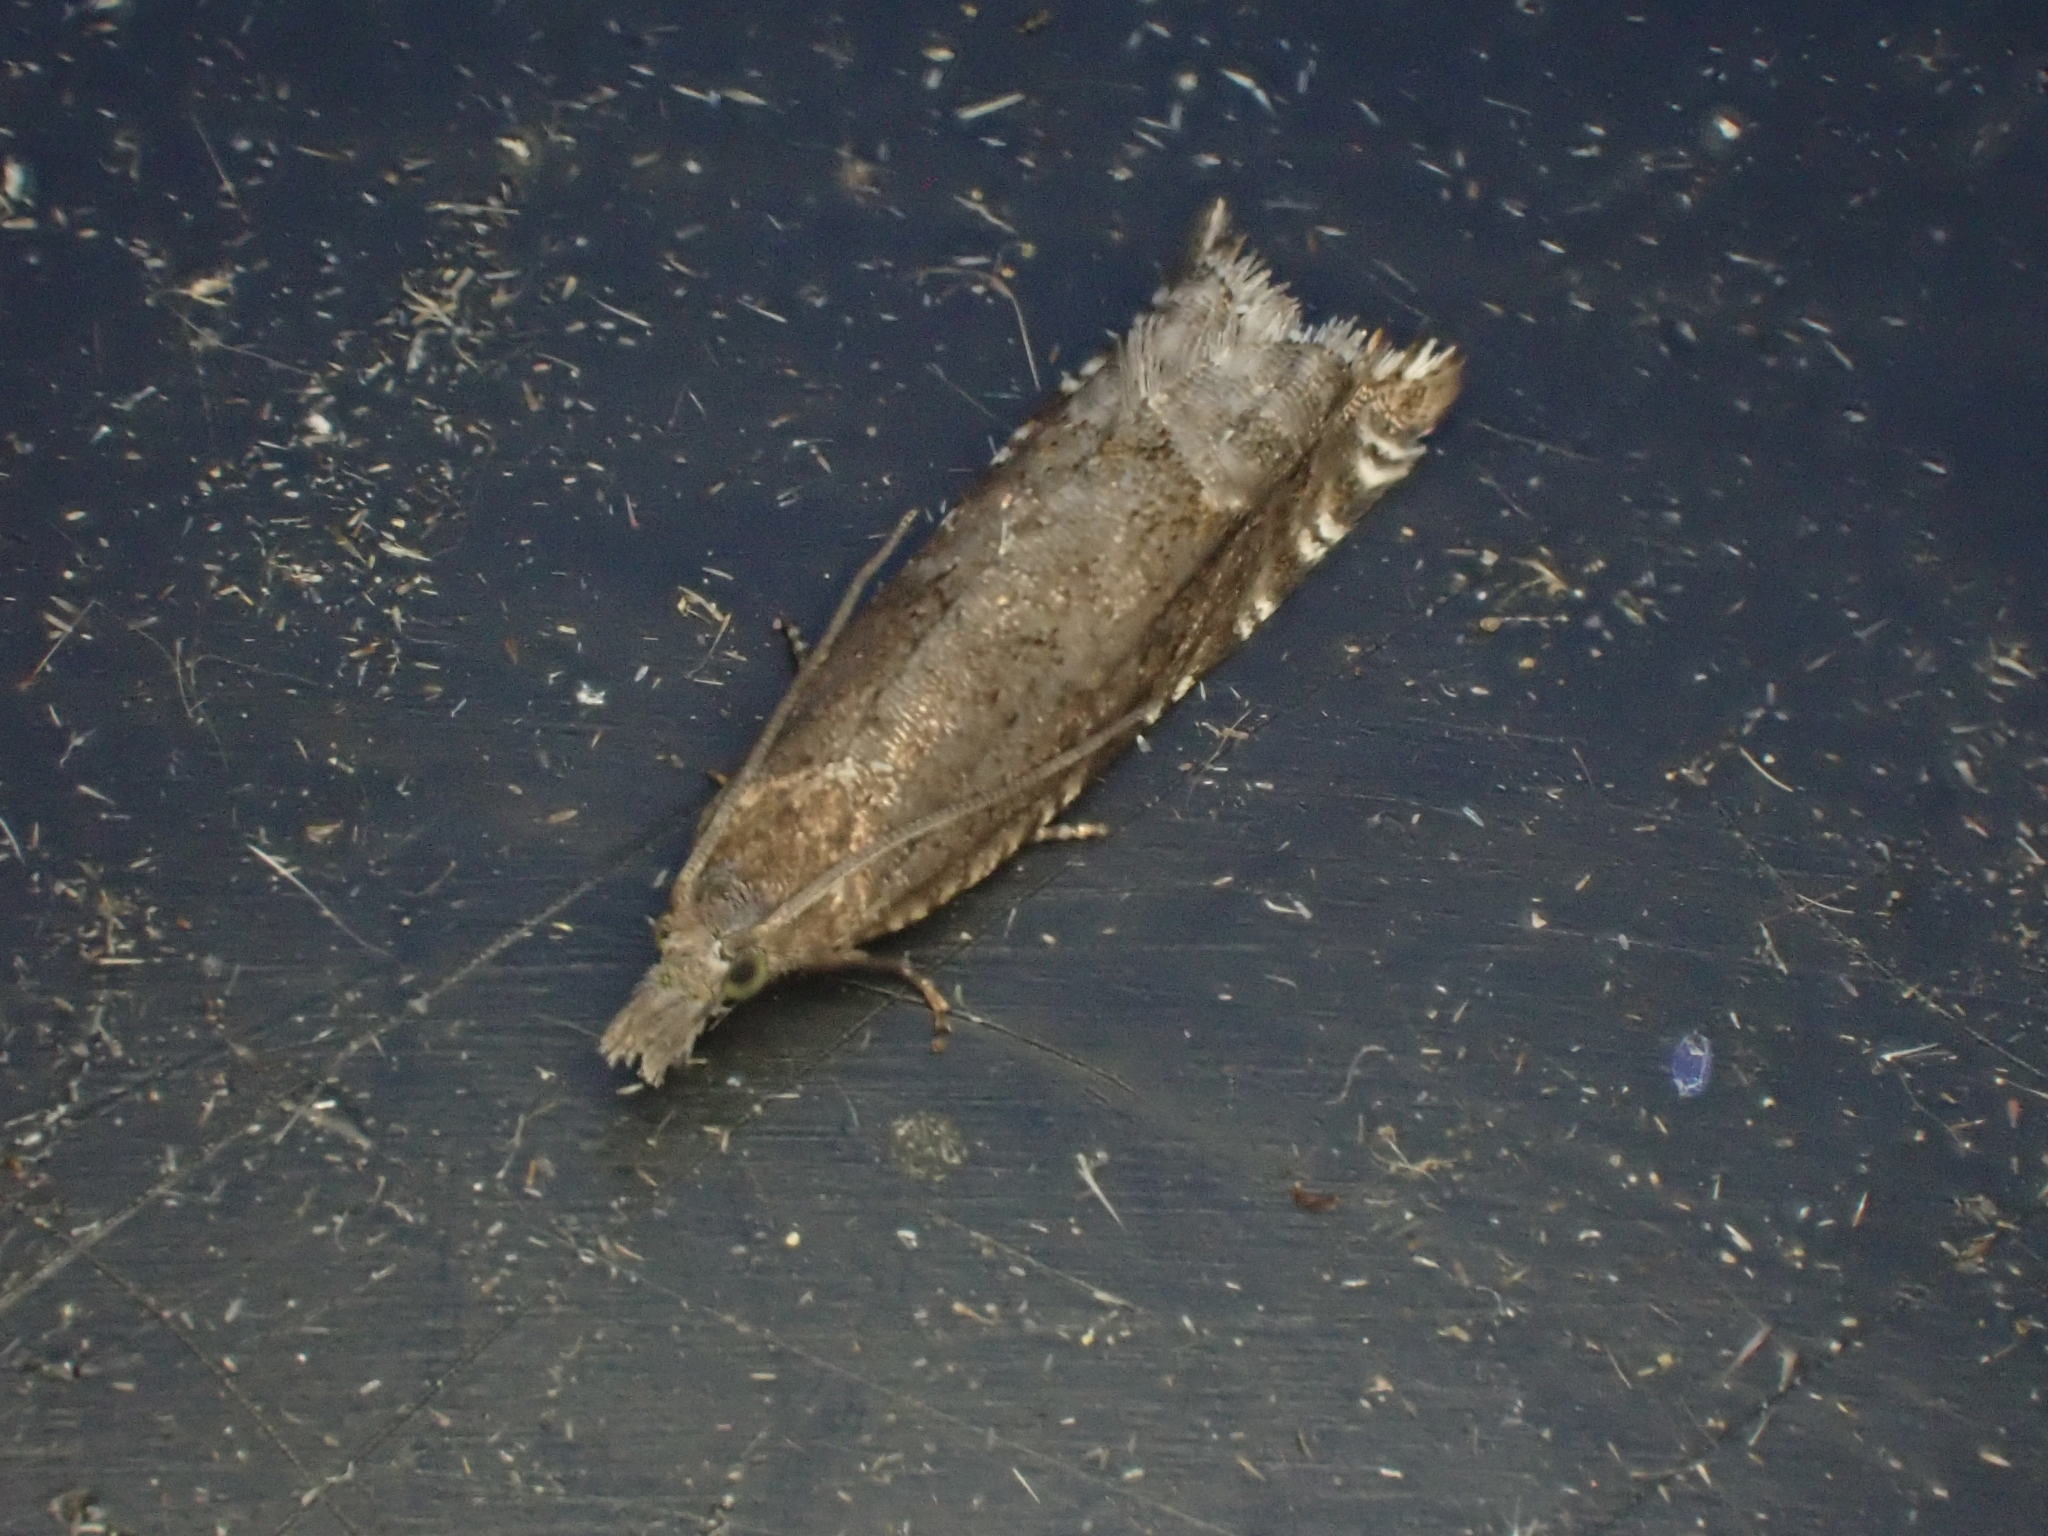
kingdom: Animalia
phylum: Arthropoda
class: Insecta
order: Lepidoptera
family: Tortricidae
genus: Ancylis
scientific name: Ancylis unguicella
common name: Broken-barred roller
